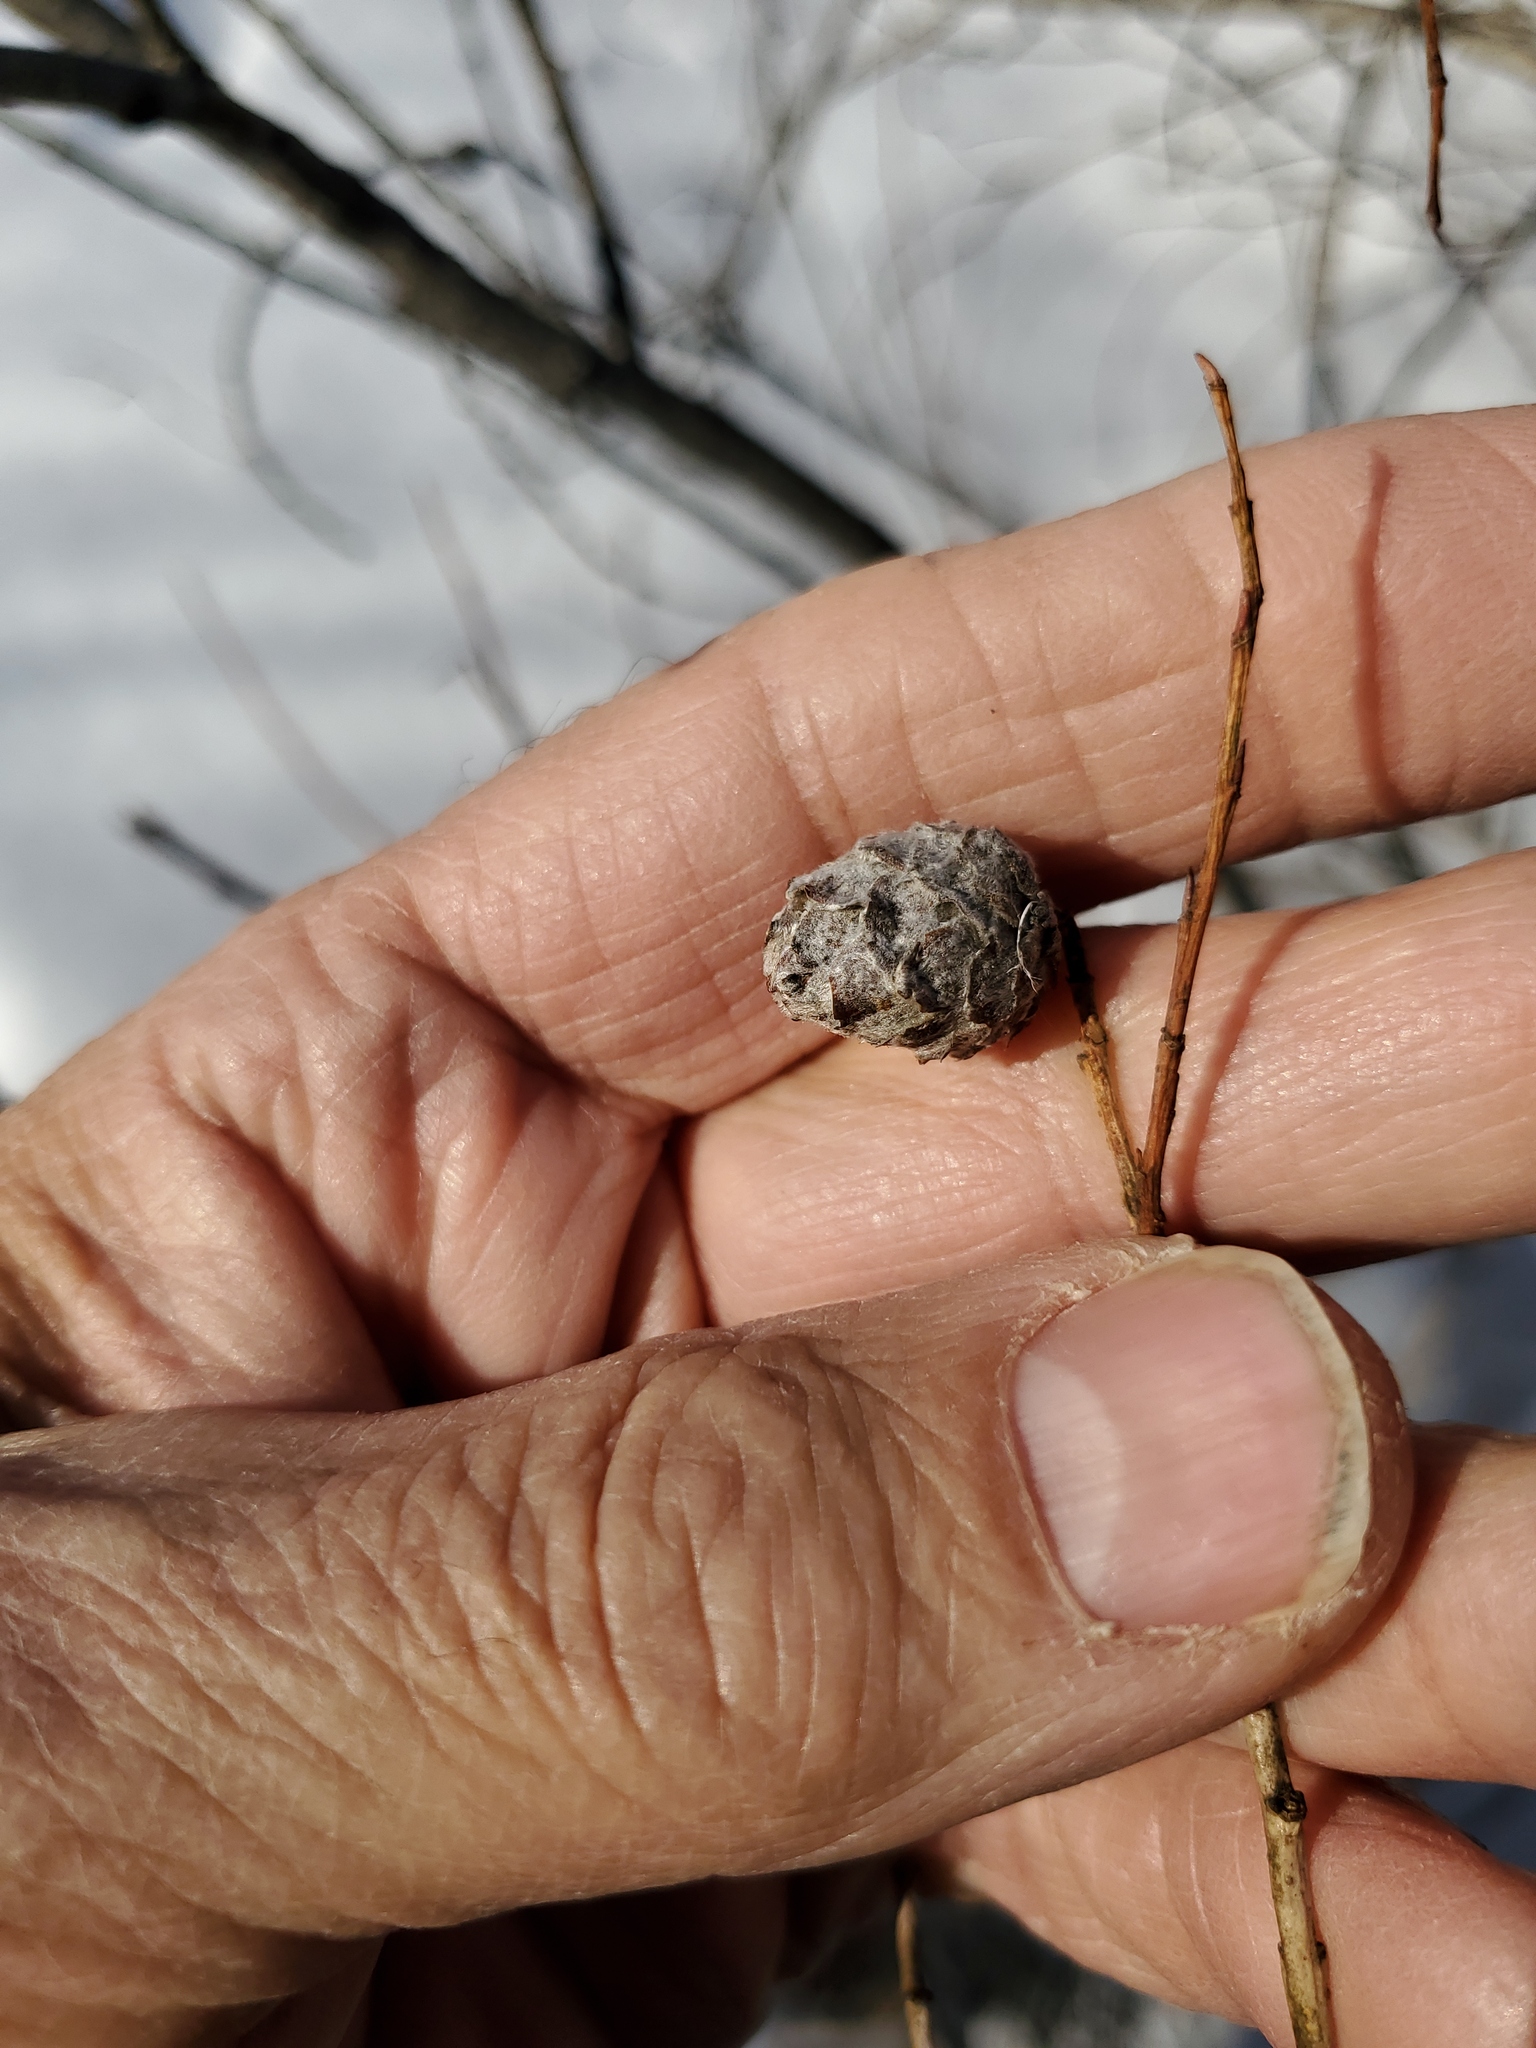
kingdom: Animalia
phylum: Arthropoda
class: Insecta
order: Diptera
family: Cecidomyiidae
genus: Rabdophaga
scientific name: Rabdophaga strobiloides
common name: Willow pinecone gall midge
